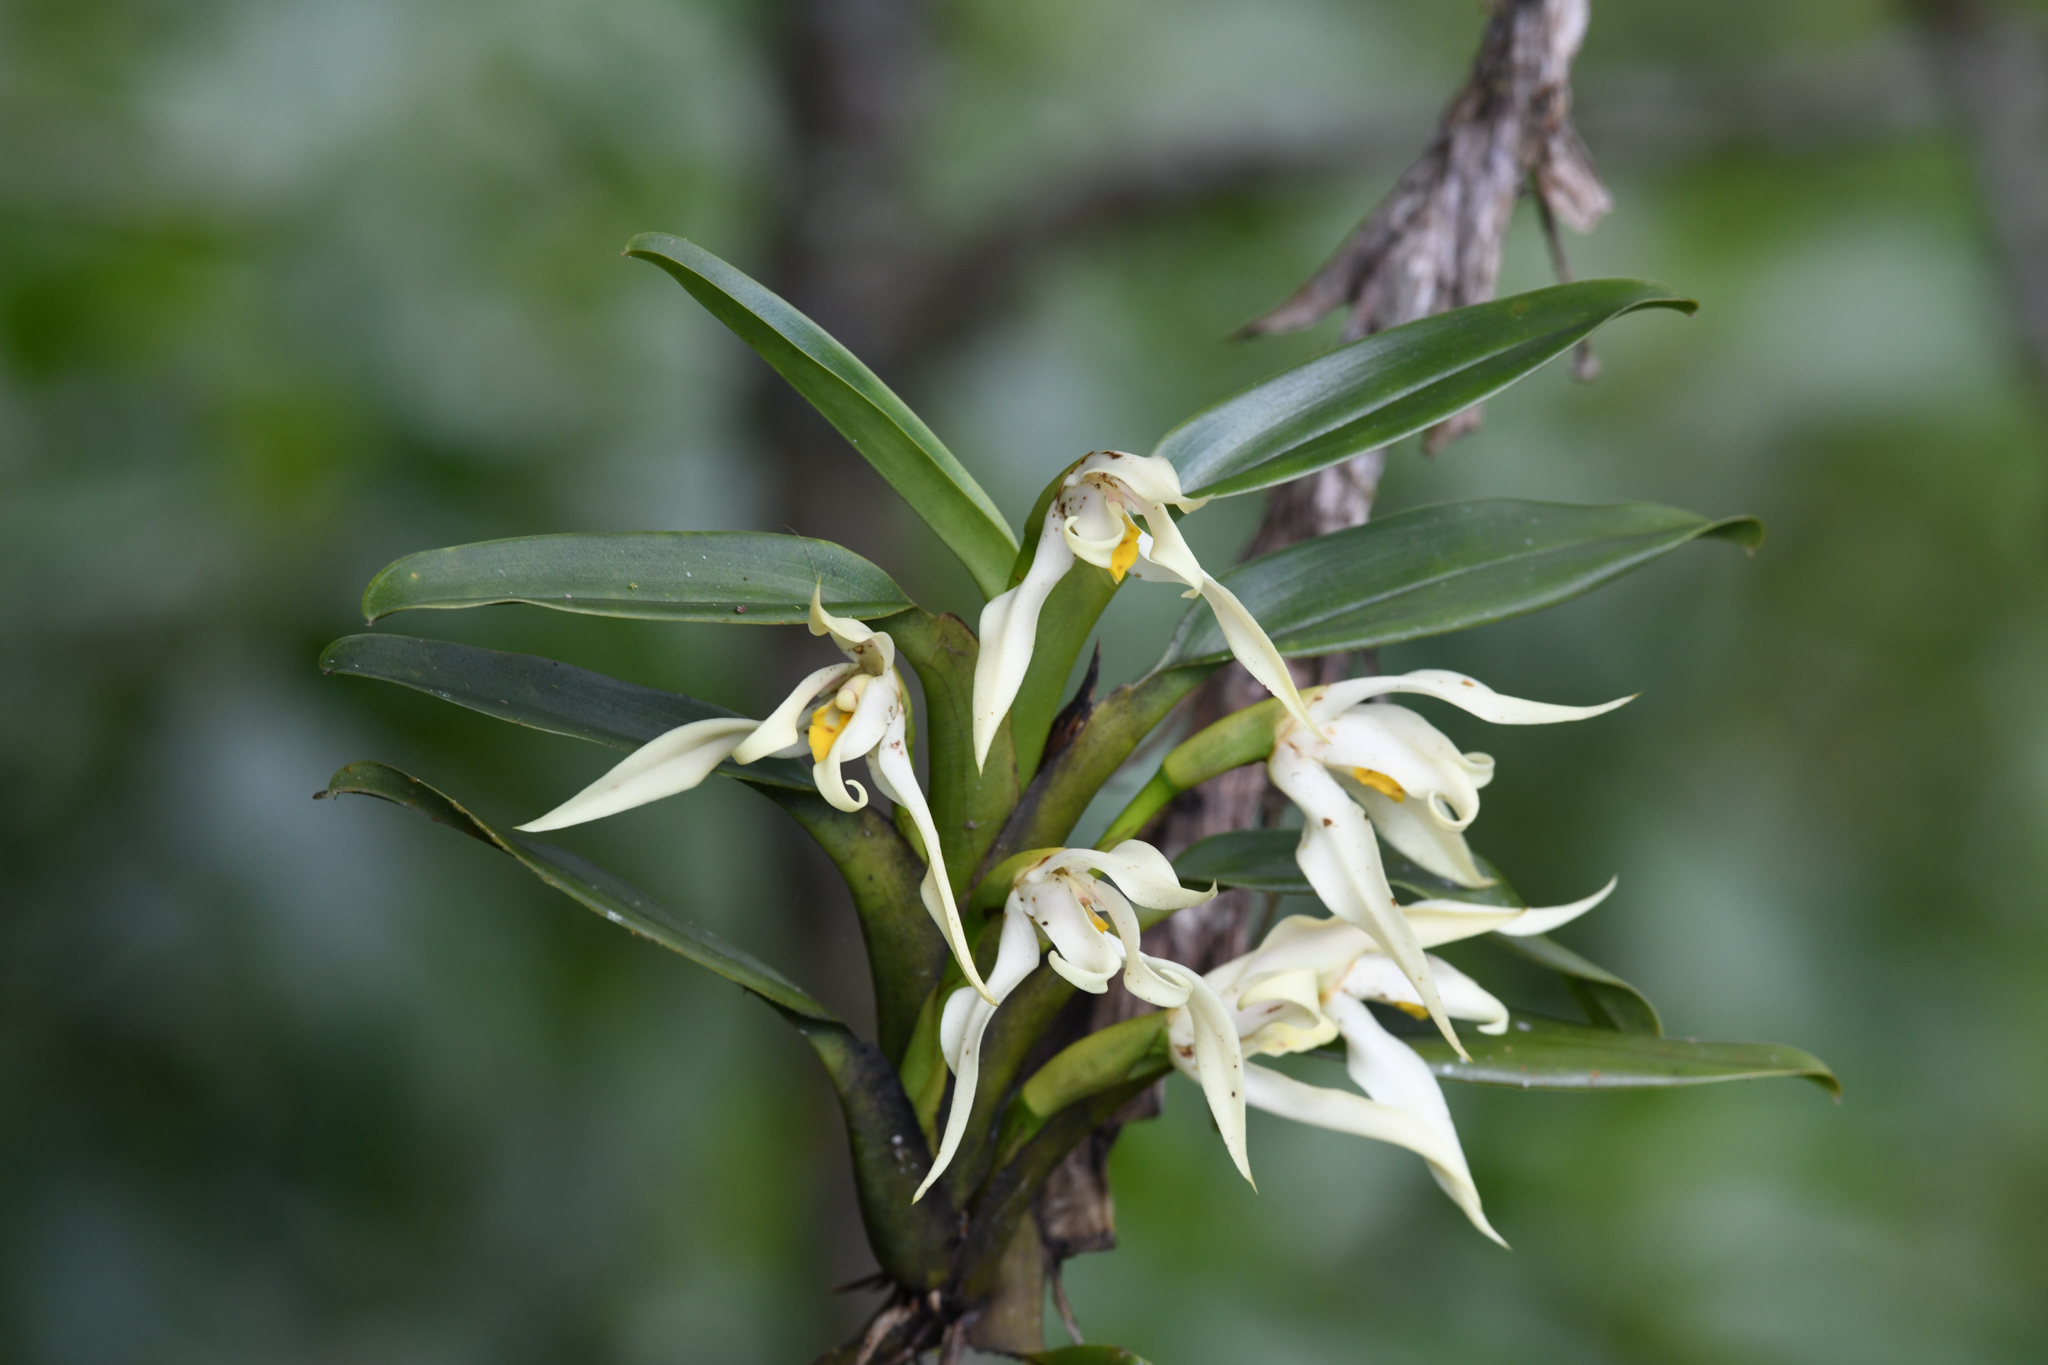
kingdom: Plantae
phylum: Tracheophyta
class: Liliopsida
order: Asparagales
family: Orchidaceae
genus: Maxillaria
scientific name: Maxillaria inaudita
